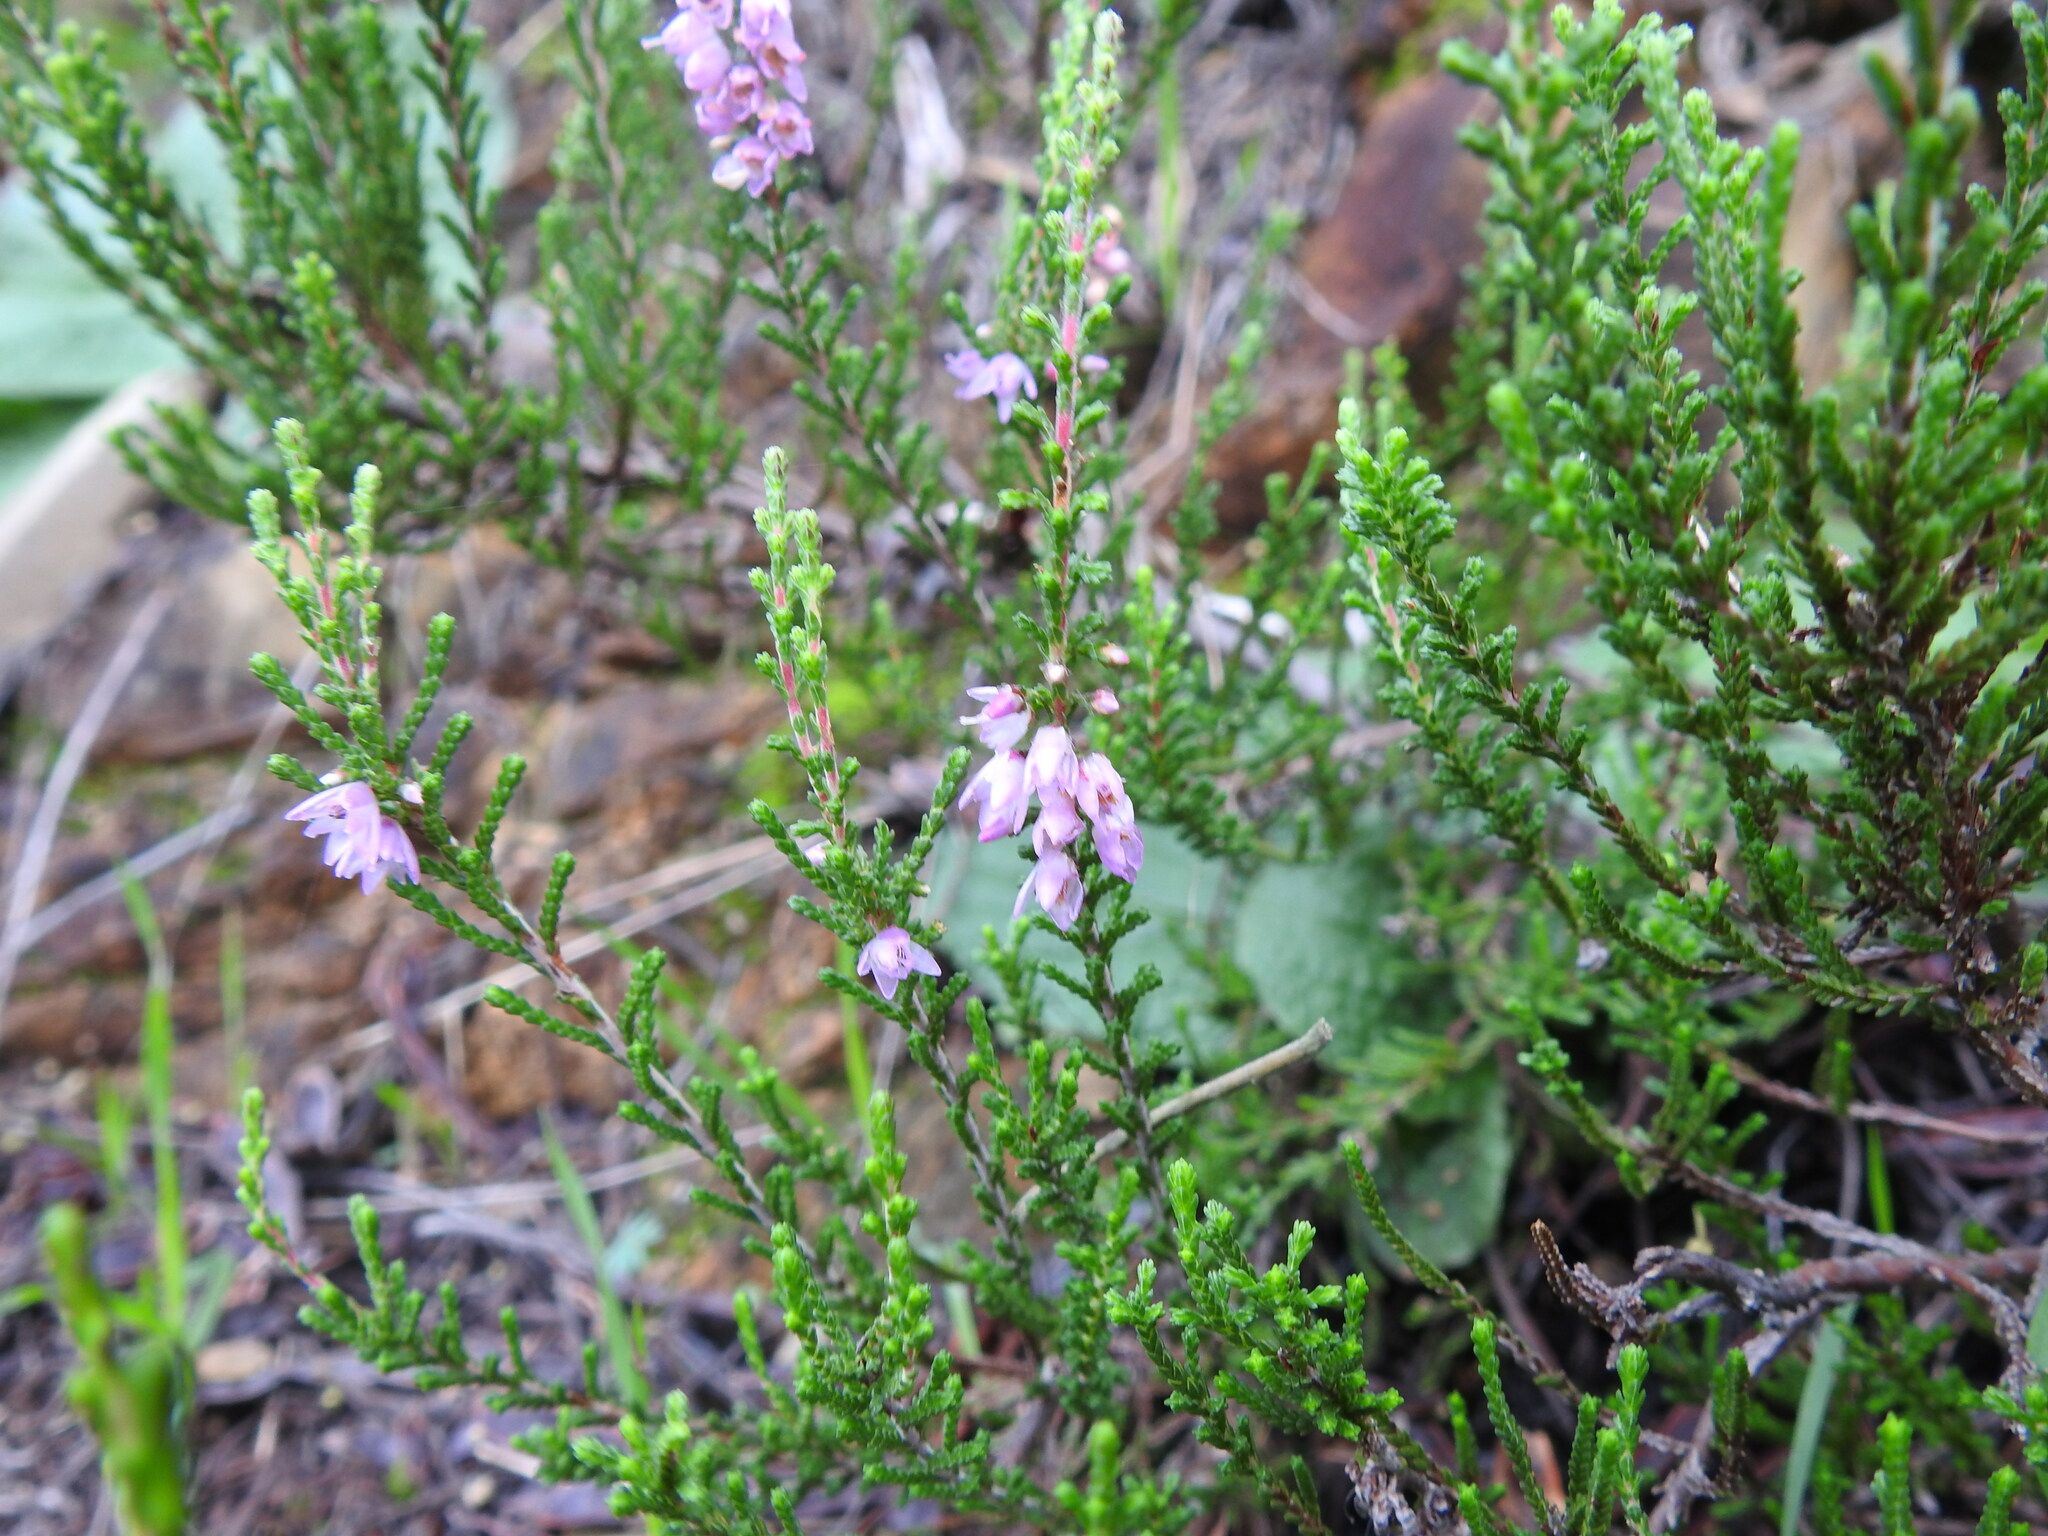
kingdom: Plantae
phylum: Tracheophyta
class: Magnoliopsida
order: Ericales
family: Ericaceae
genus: Calluna
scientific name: Calluna vulgaris
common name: Heather
